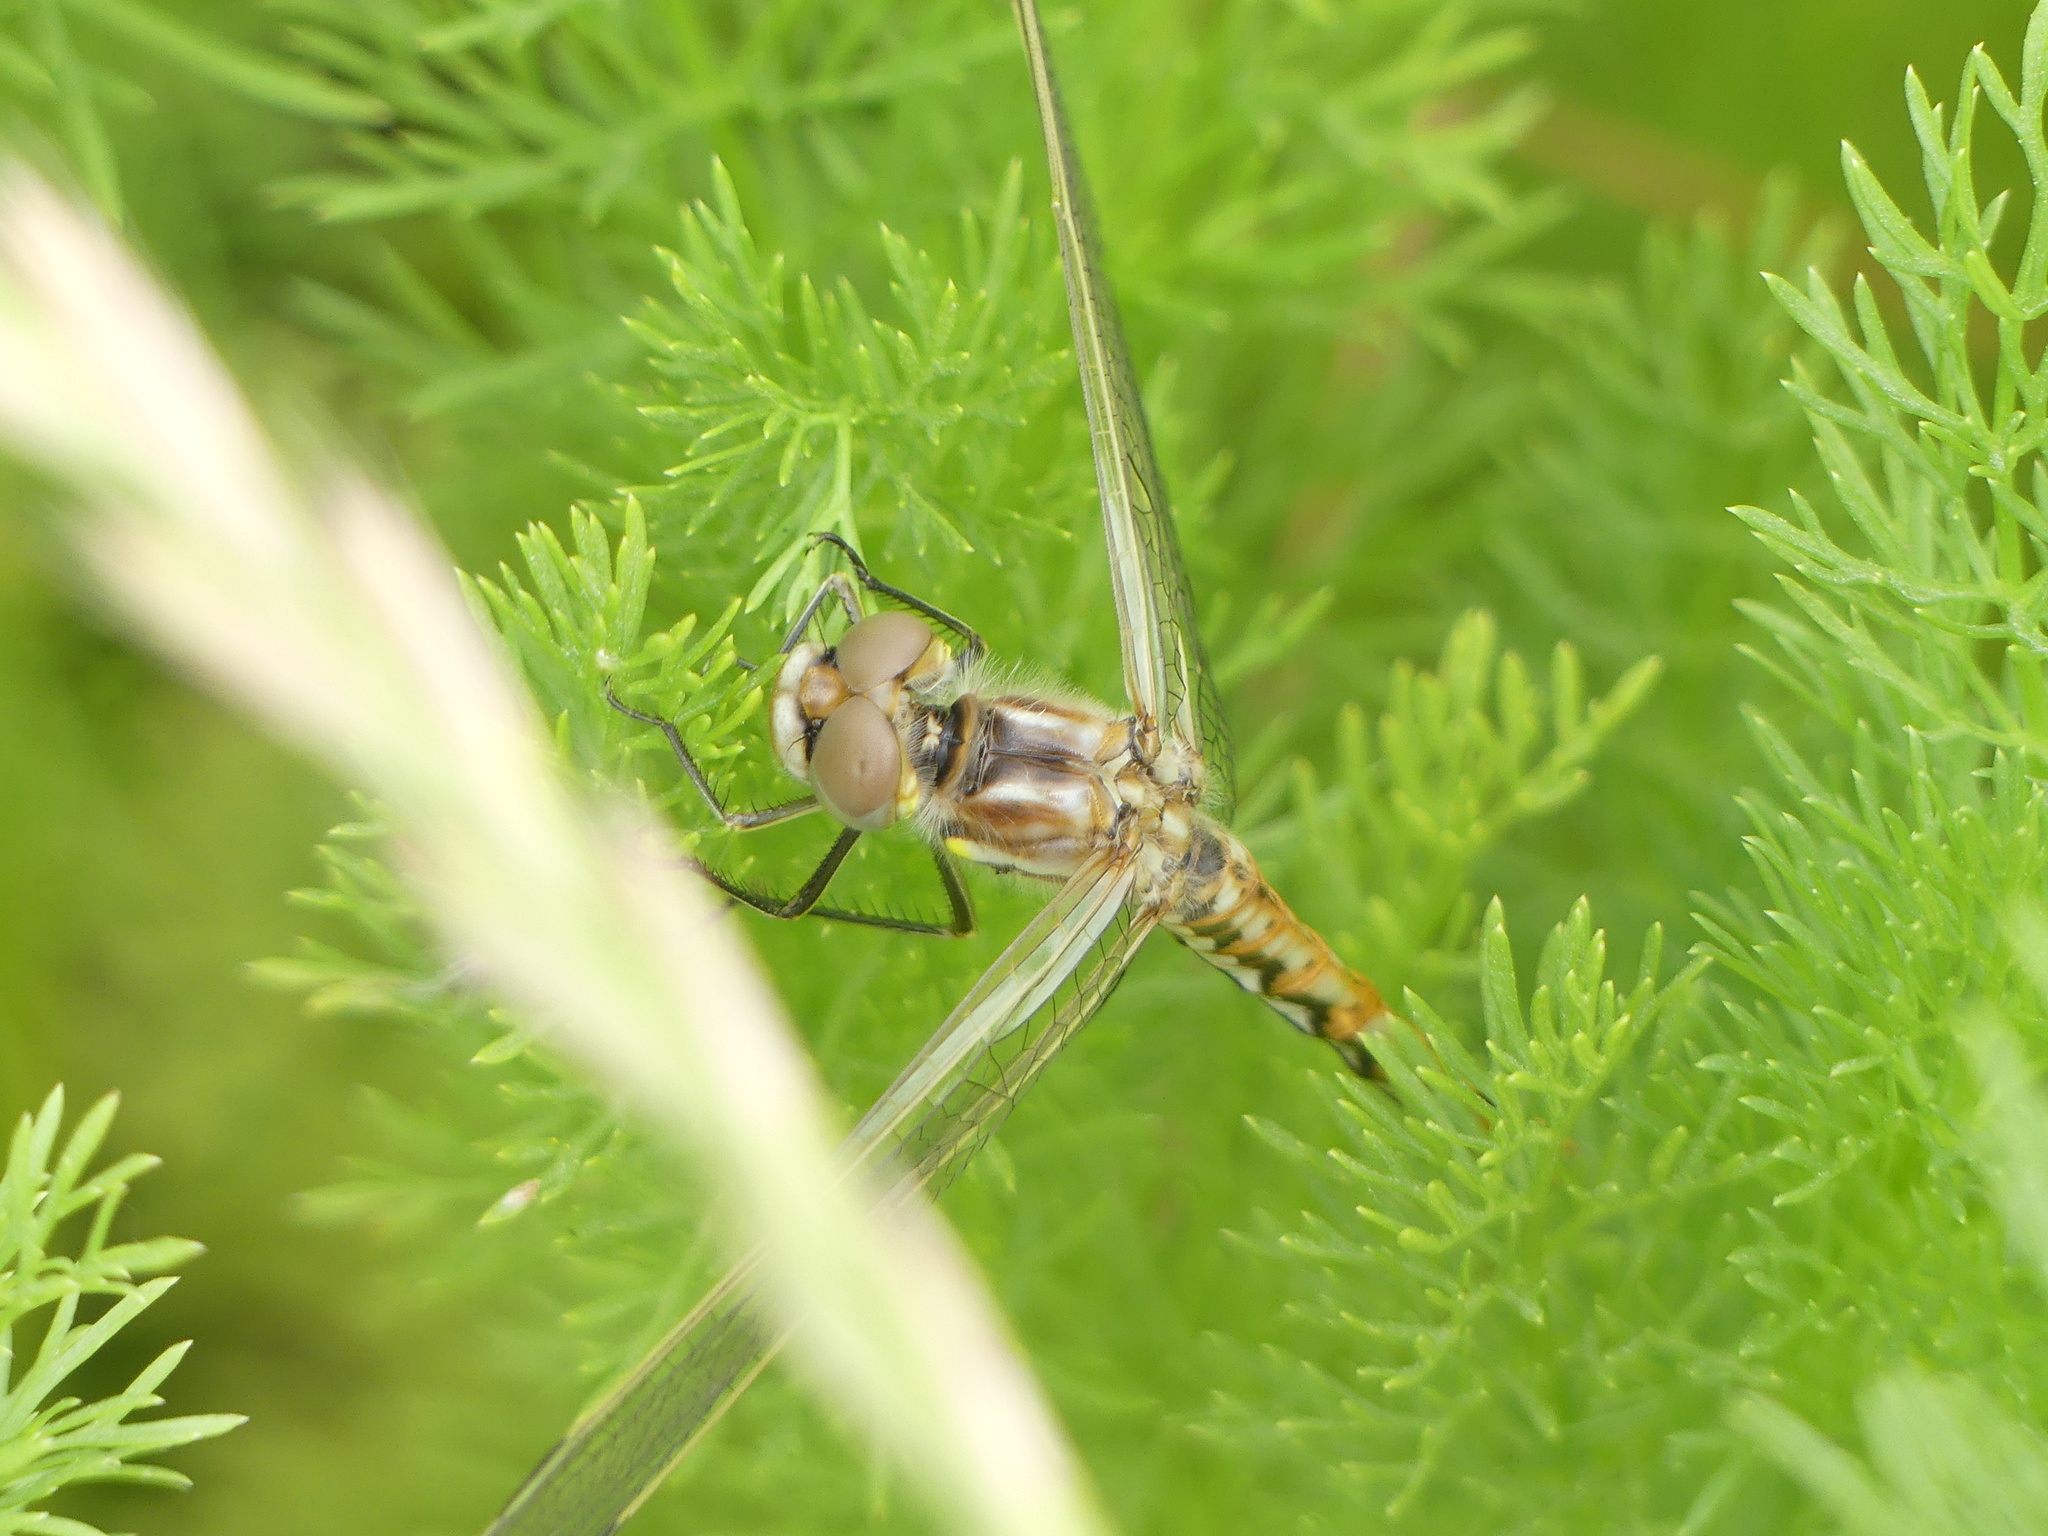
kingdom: Animalia
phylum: Arthropoda
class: Insecta
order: Odonata
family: Libellulidae
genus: Sympetrum
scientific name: Sympetrum corruptum
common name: Variegated meadowhawk
